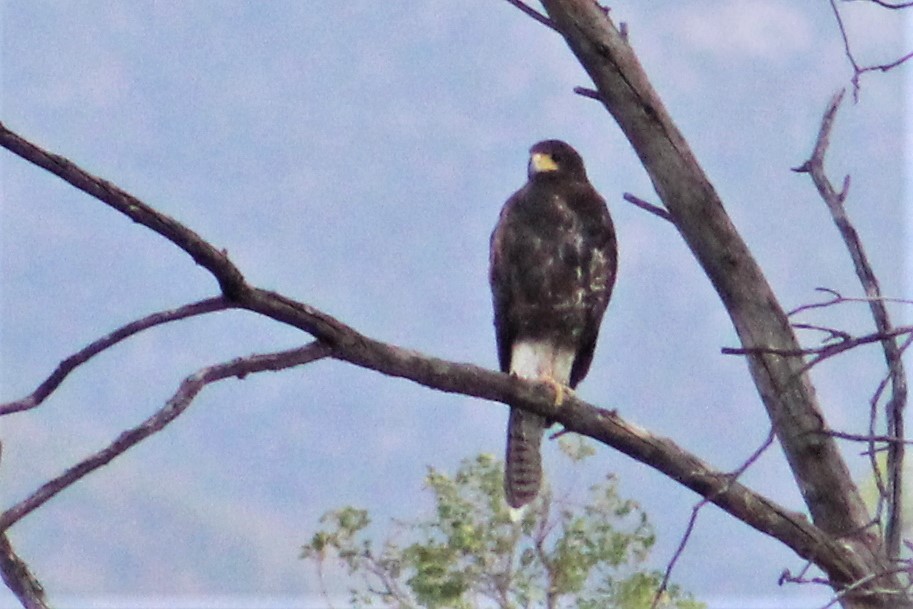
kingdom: Animalia
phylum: Chordata
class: Aves
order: Accipitriformes
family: Accipitridae
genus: Parabuteo
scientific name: Parabuteo unicinctus
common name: Harris's hawk
